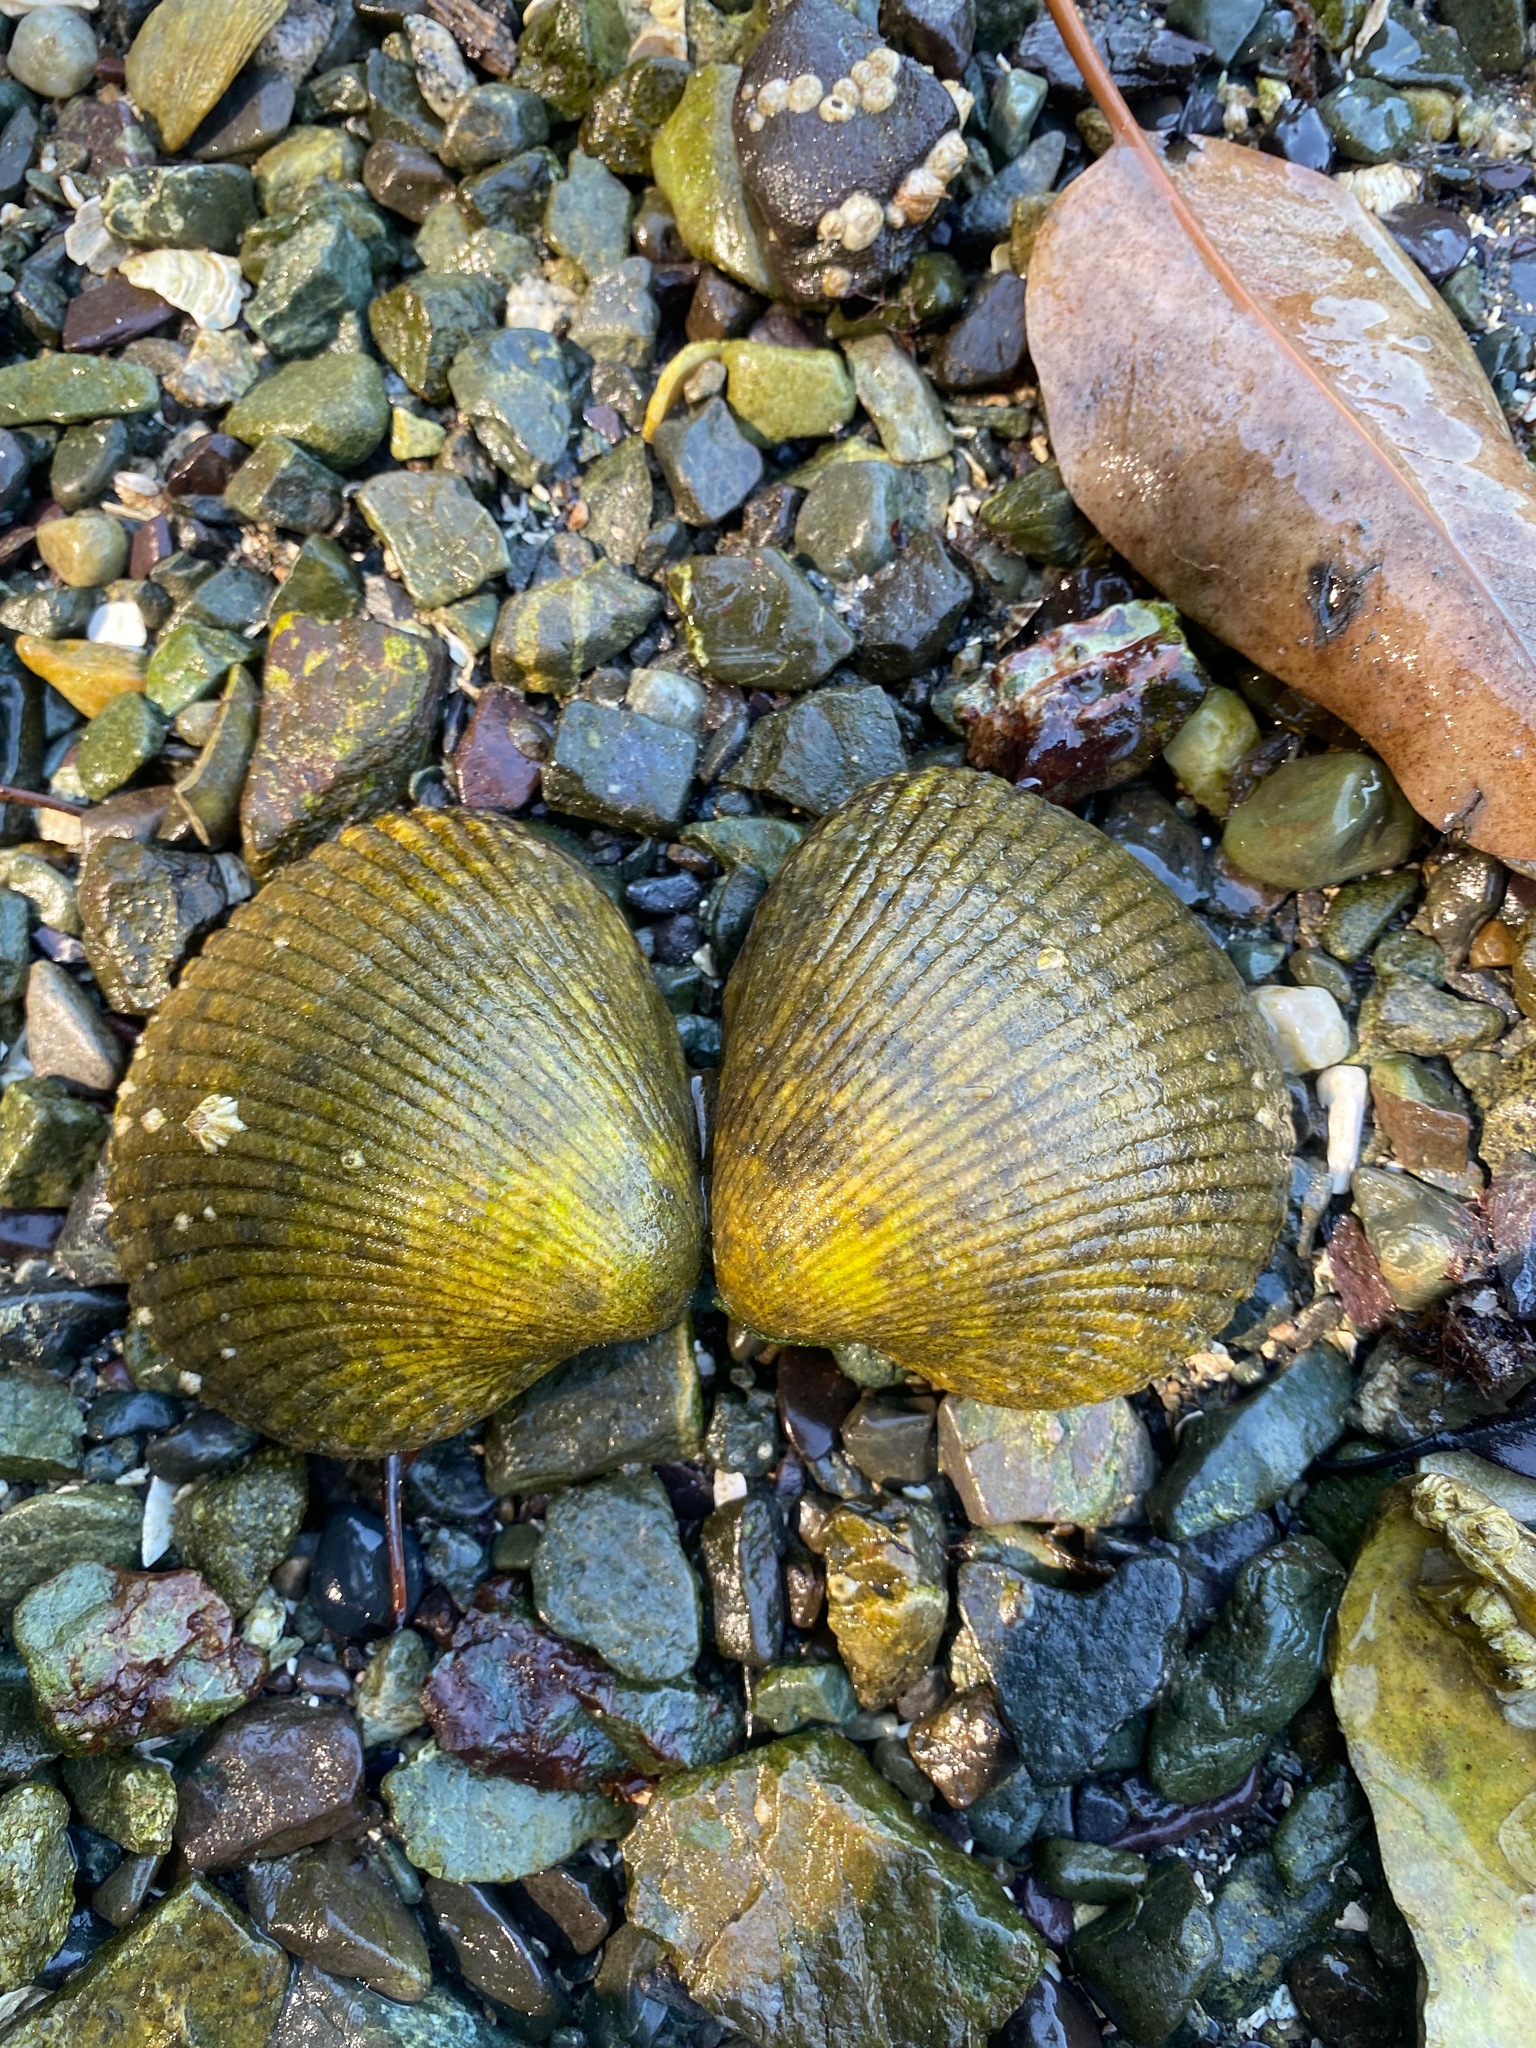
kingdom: Animalia
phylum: Mollusca
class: Bivalvia
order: Cardiida
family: Cardiidae
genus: Clinocardium
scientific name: Clinocardium nuttallii
